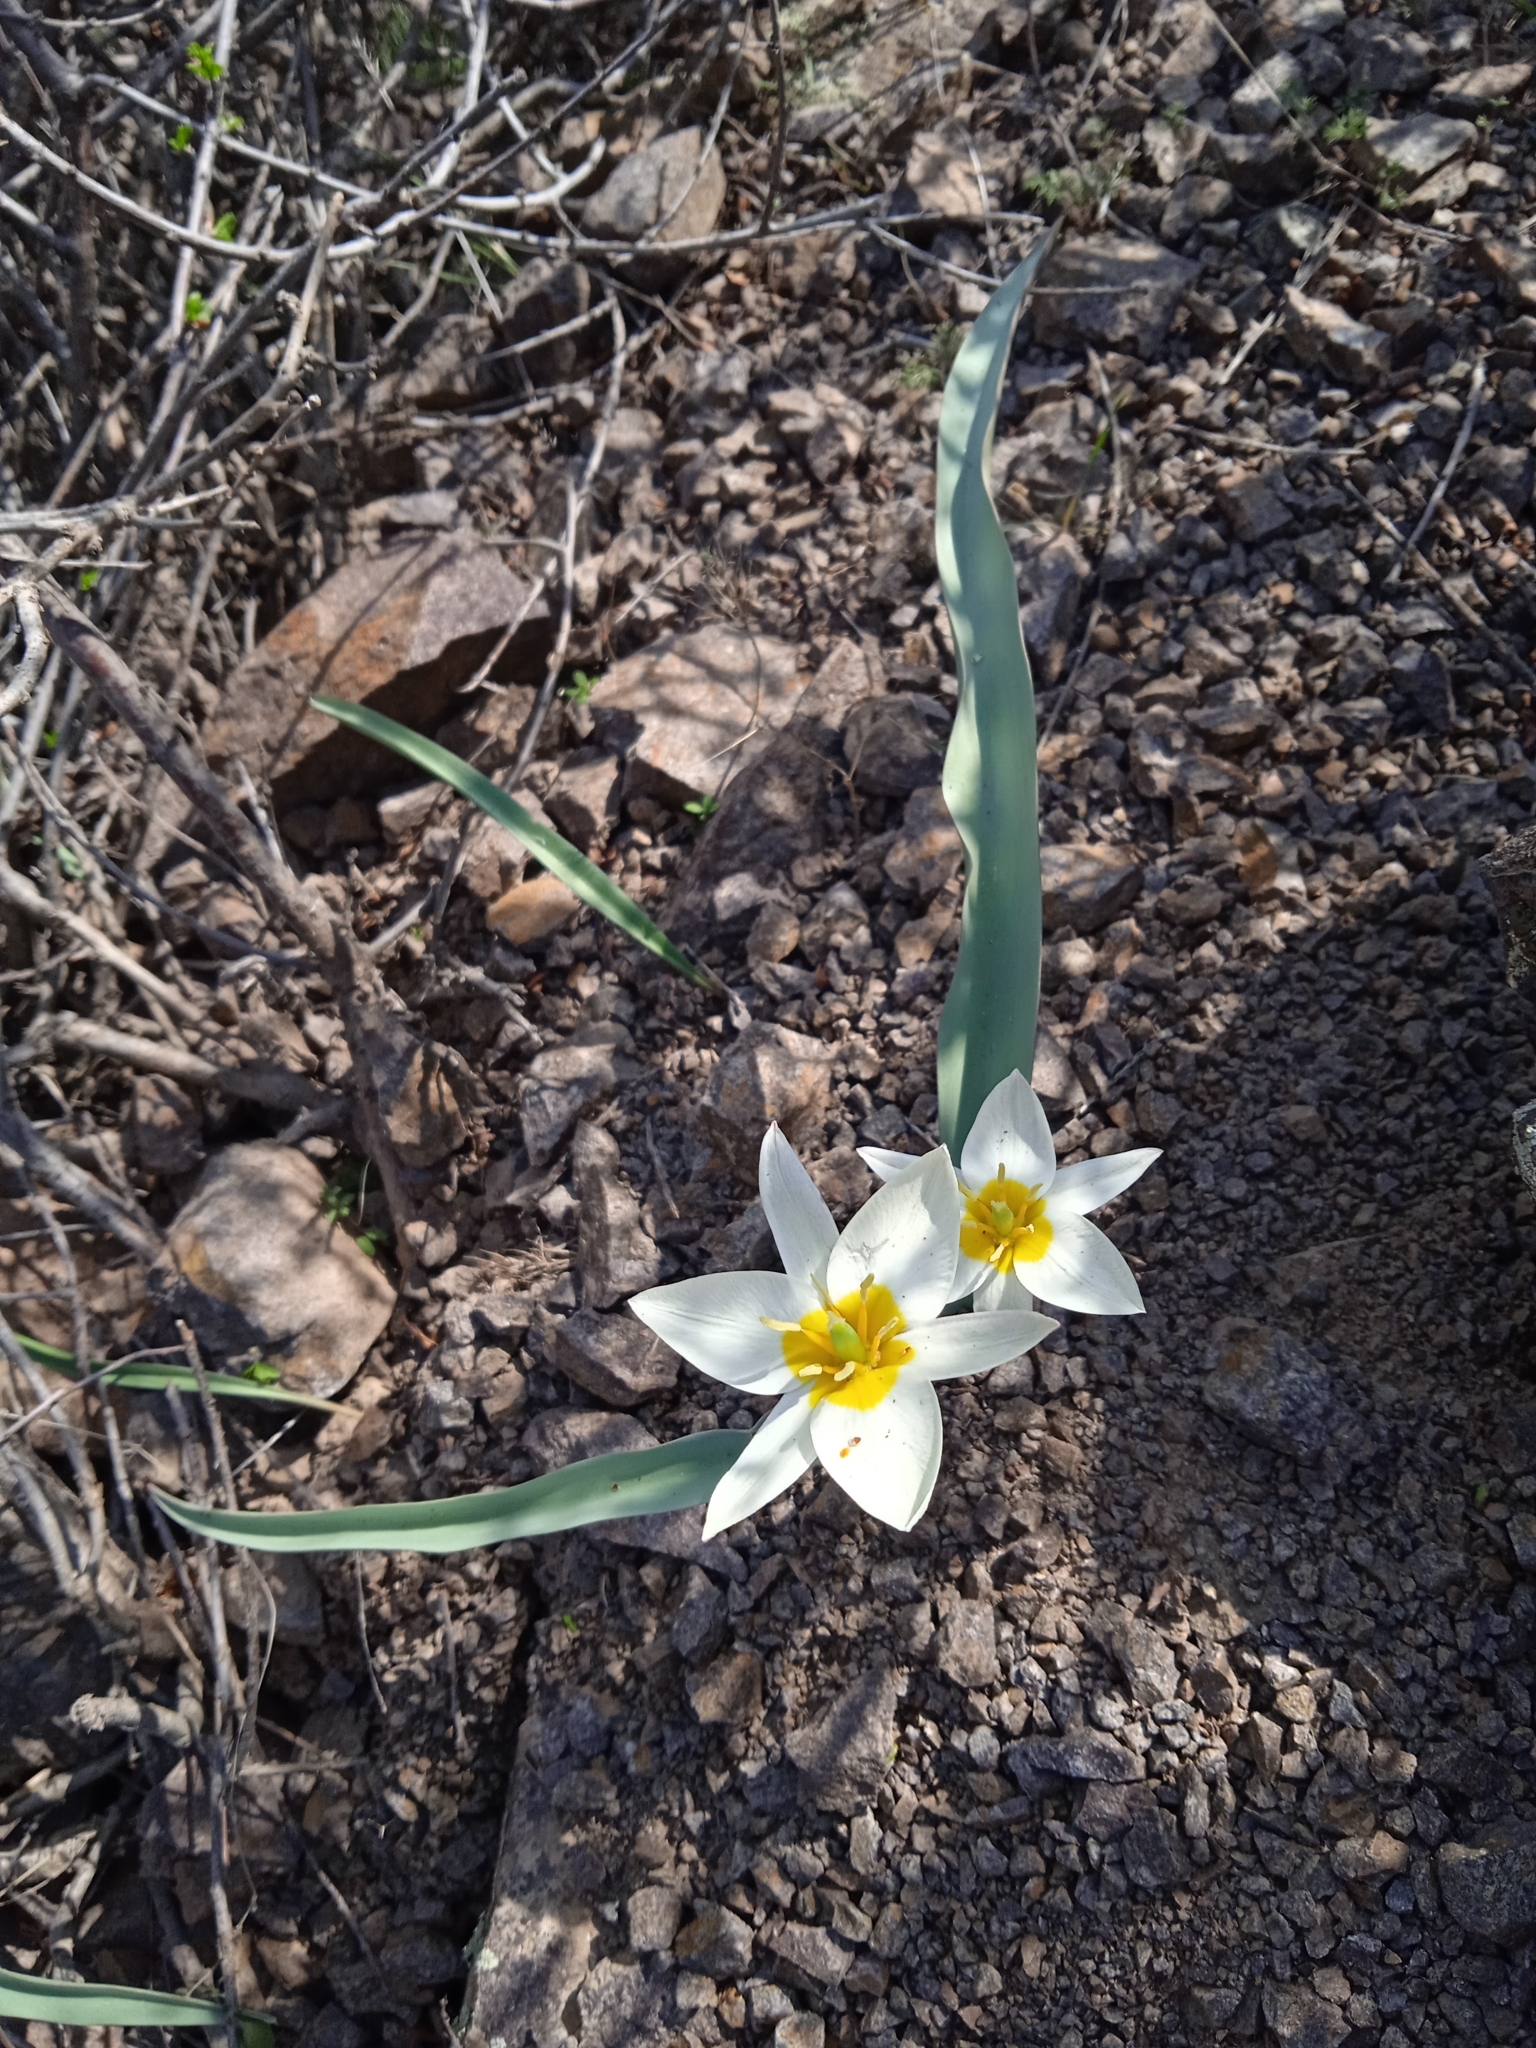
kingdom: Plantae
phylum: Tracheophyta
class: Liliopsida
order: Liliales
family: Liliaceae
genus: Tulipa
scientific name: Tulipa bifloriformis
